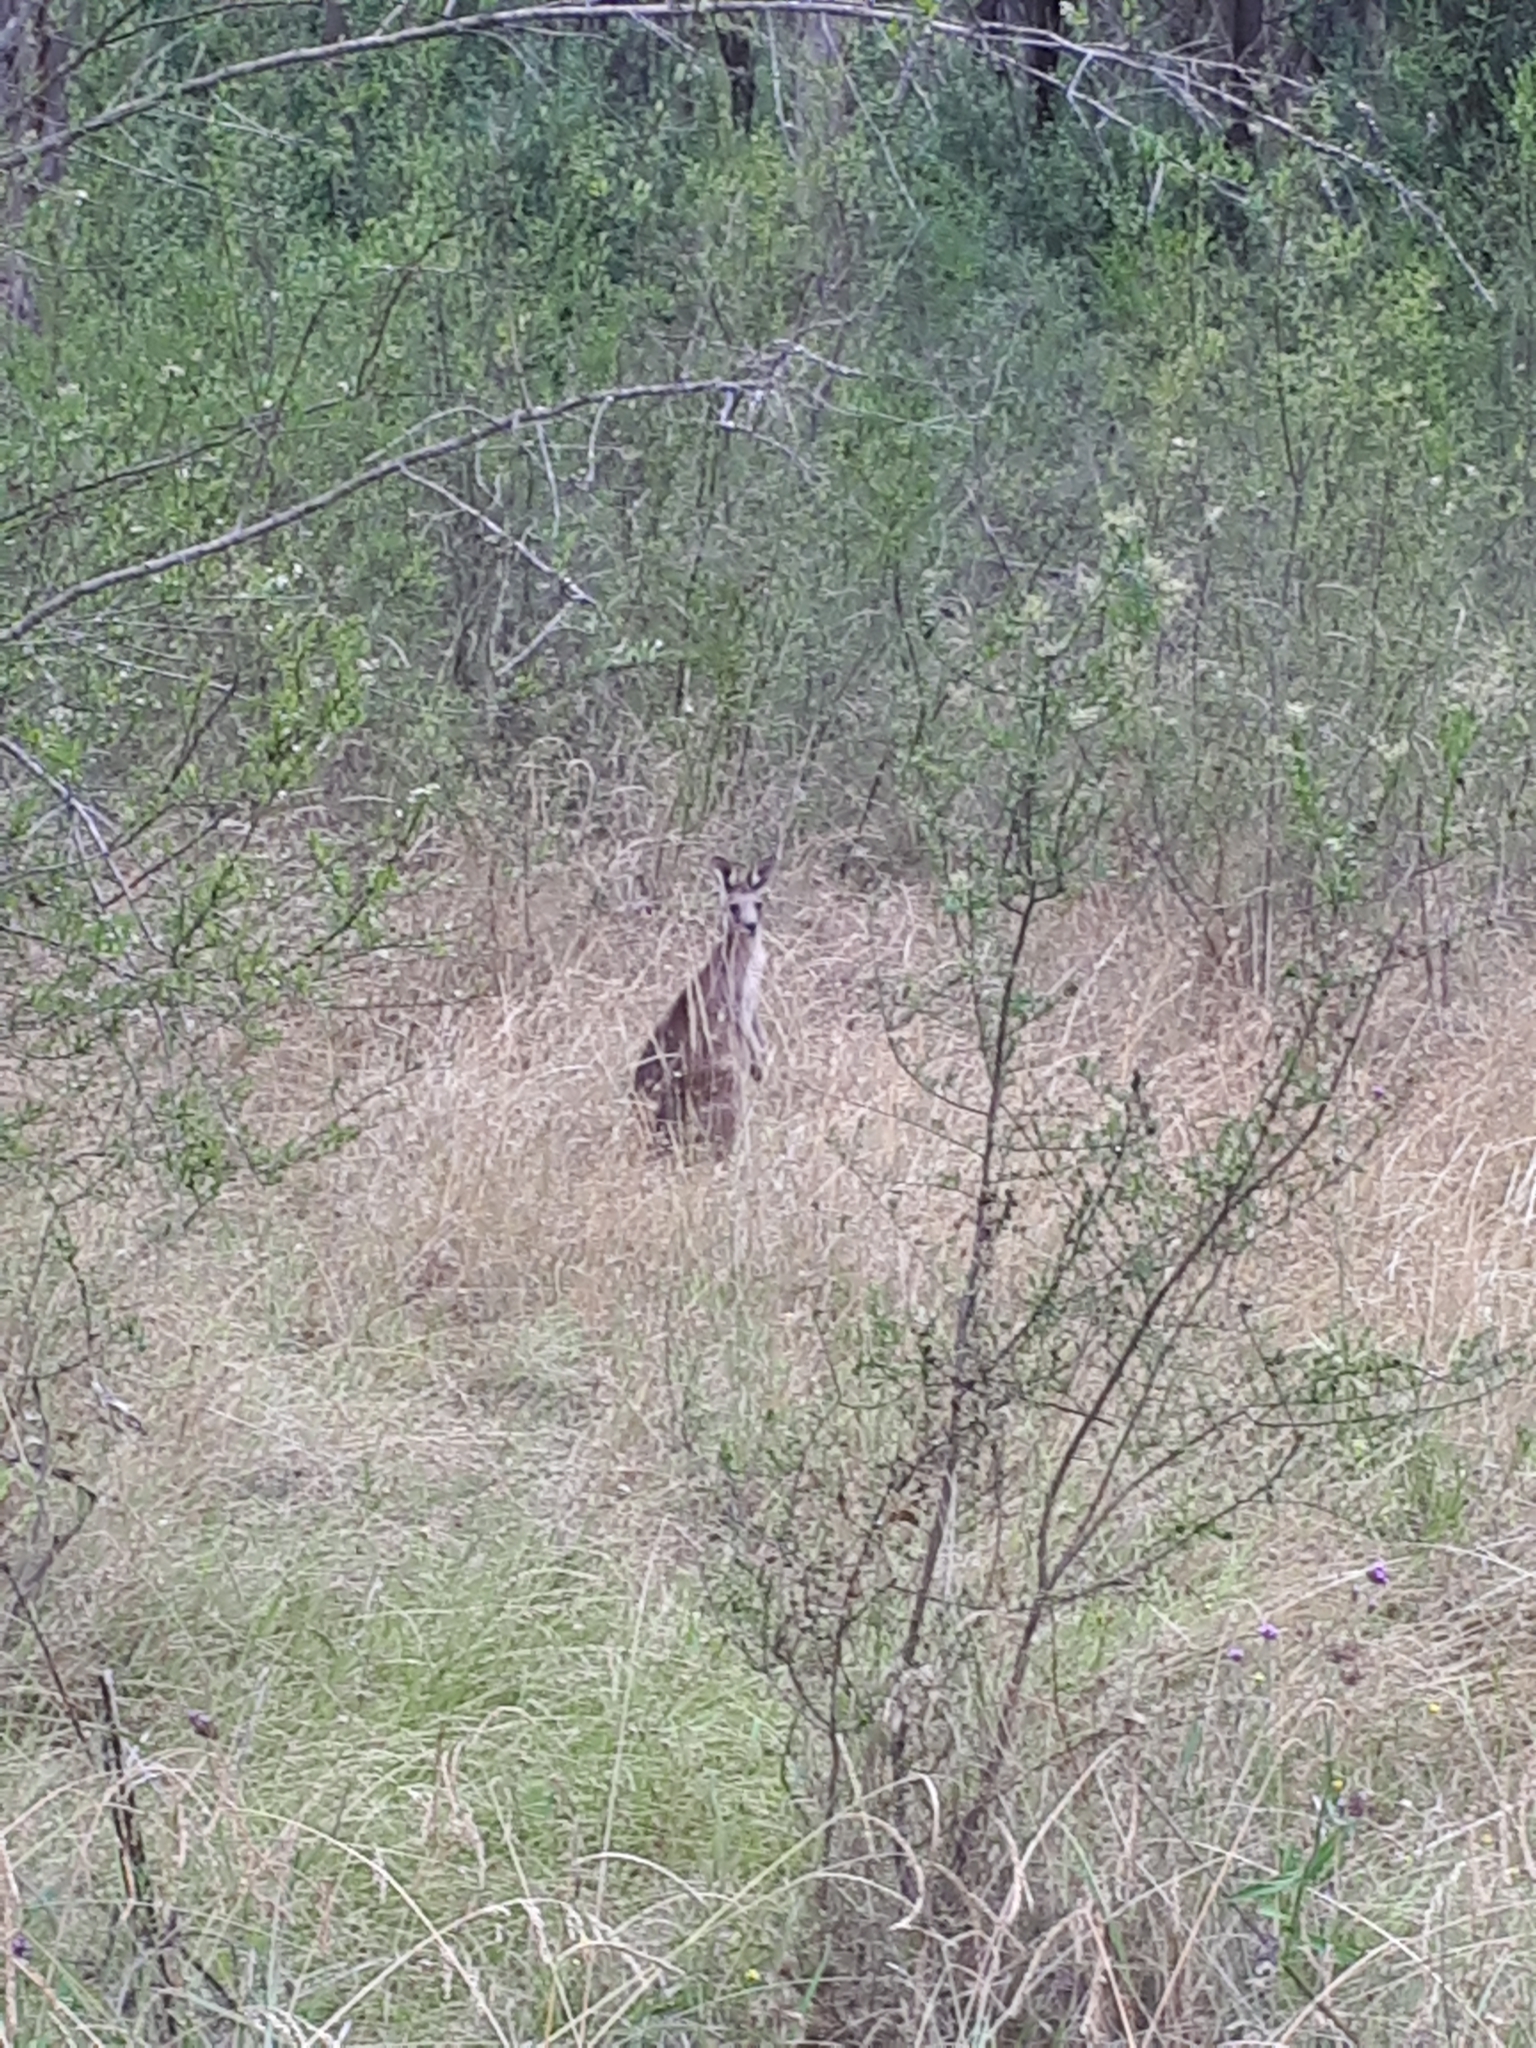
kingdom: Animalia
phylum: Chordata
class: Mammalia
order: Diprotodontia
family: Macropodidae
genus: Macropus
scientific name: Macropus giganteus
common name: Eastern grey kangaroo
